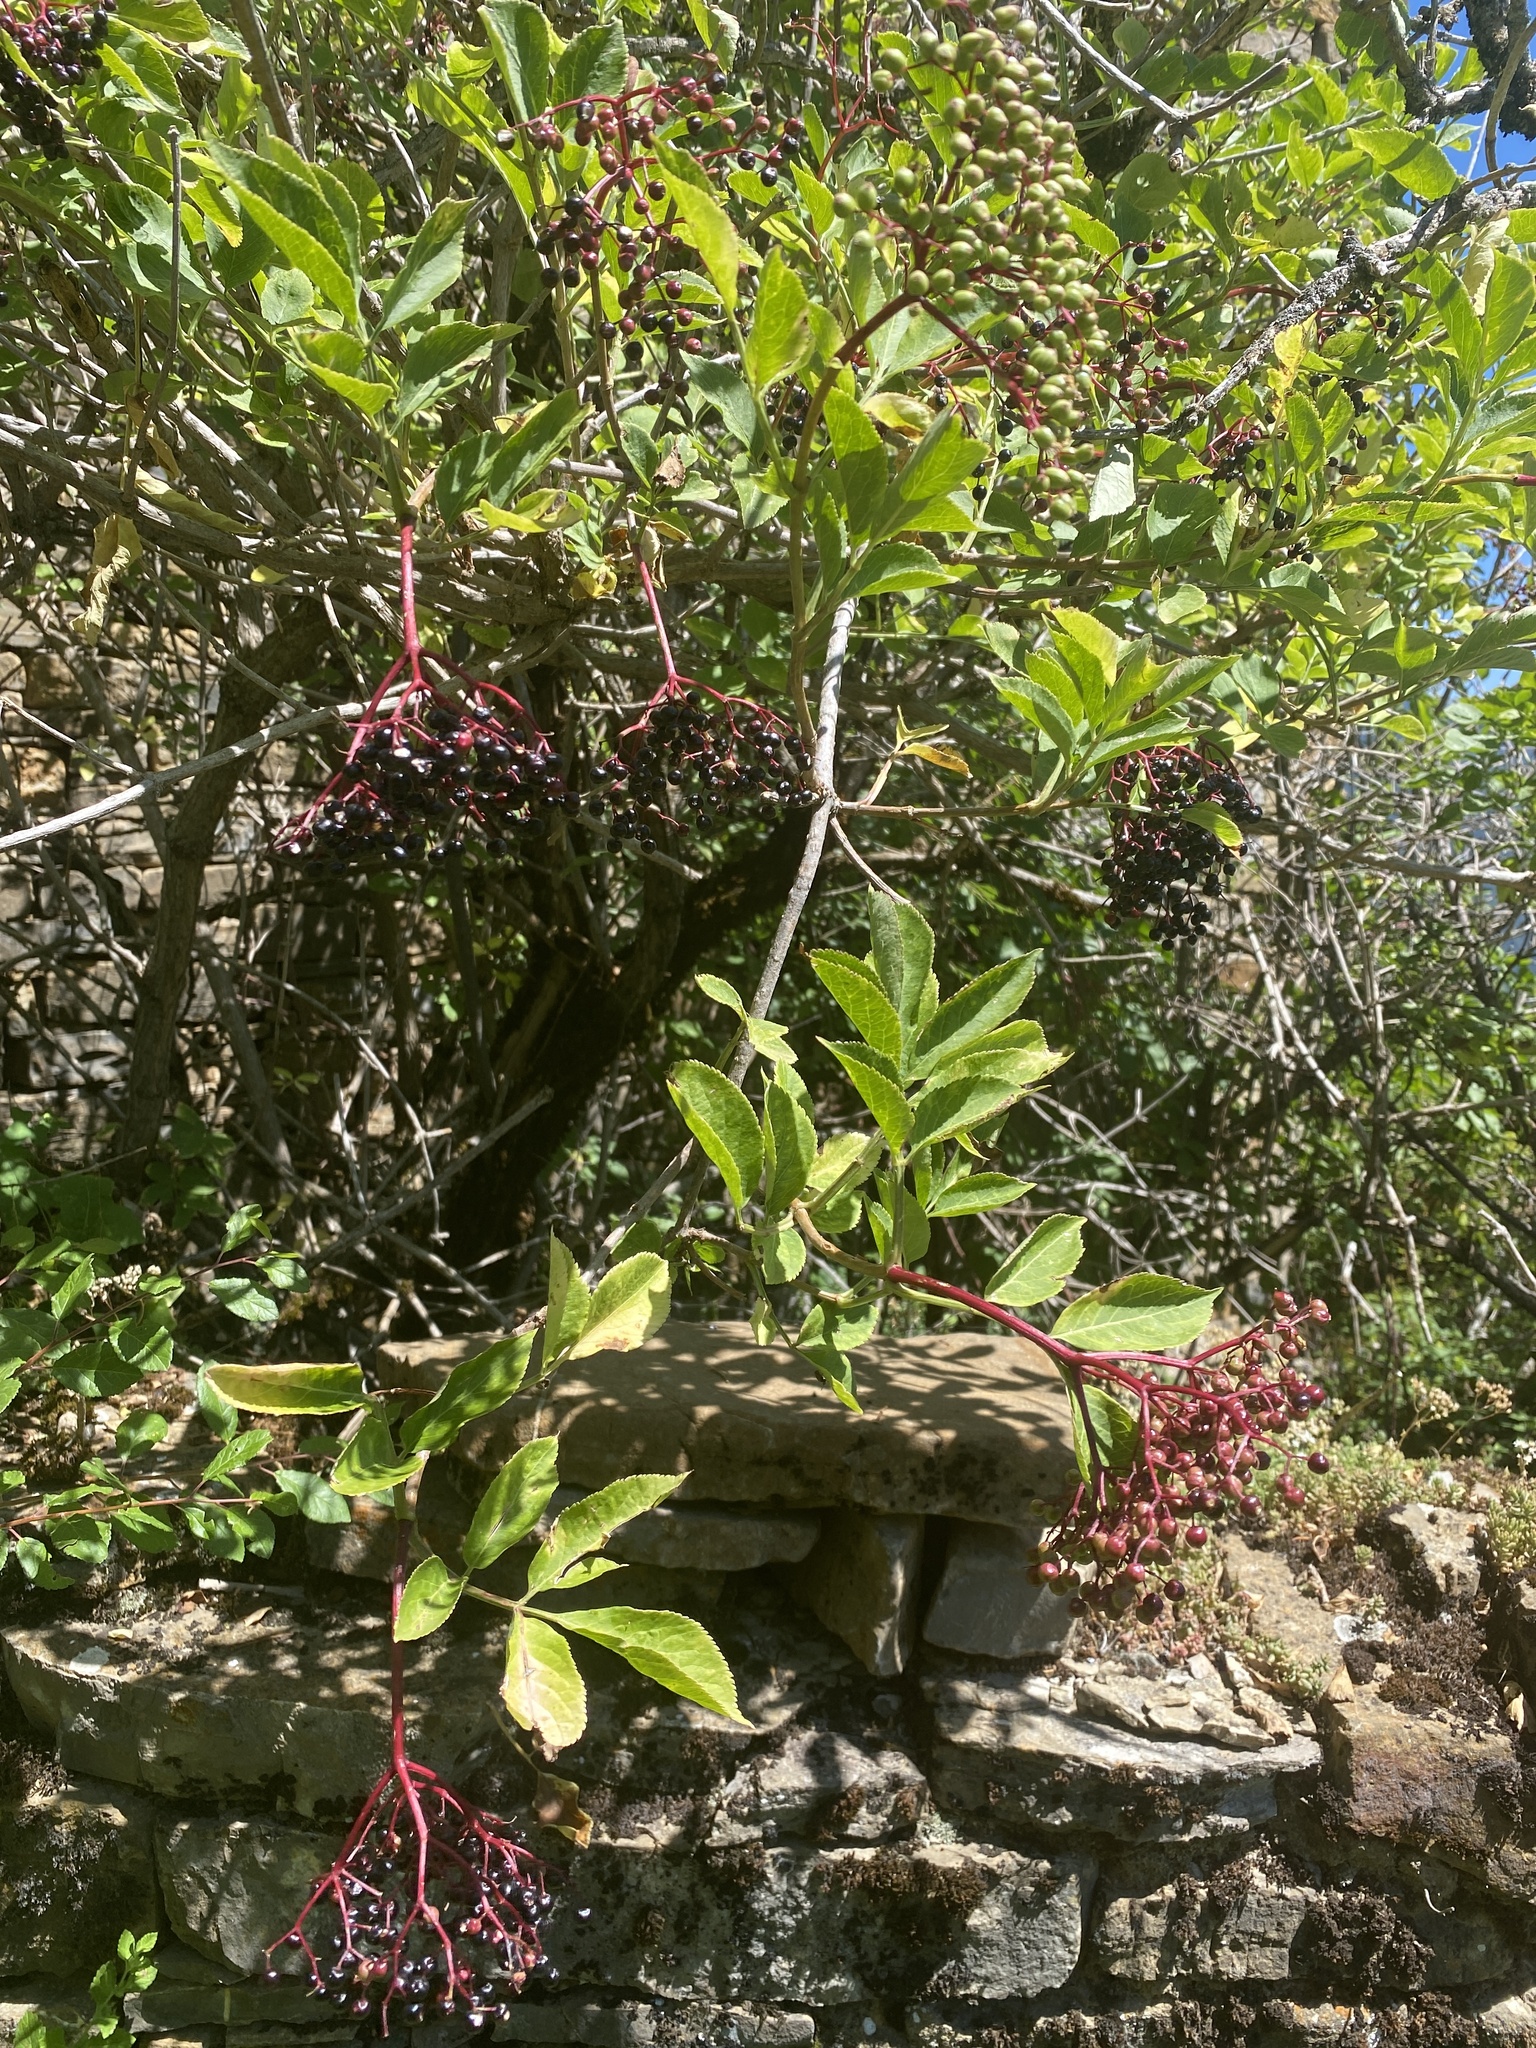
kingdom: Plantae
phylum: Tracheophyta
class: Magnoliopsida
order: Dipsacales
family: Viburnaceae
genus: Sambucus
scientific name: Sambucus nigra
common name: Elder
